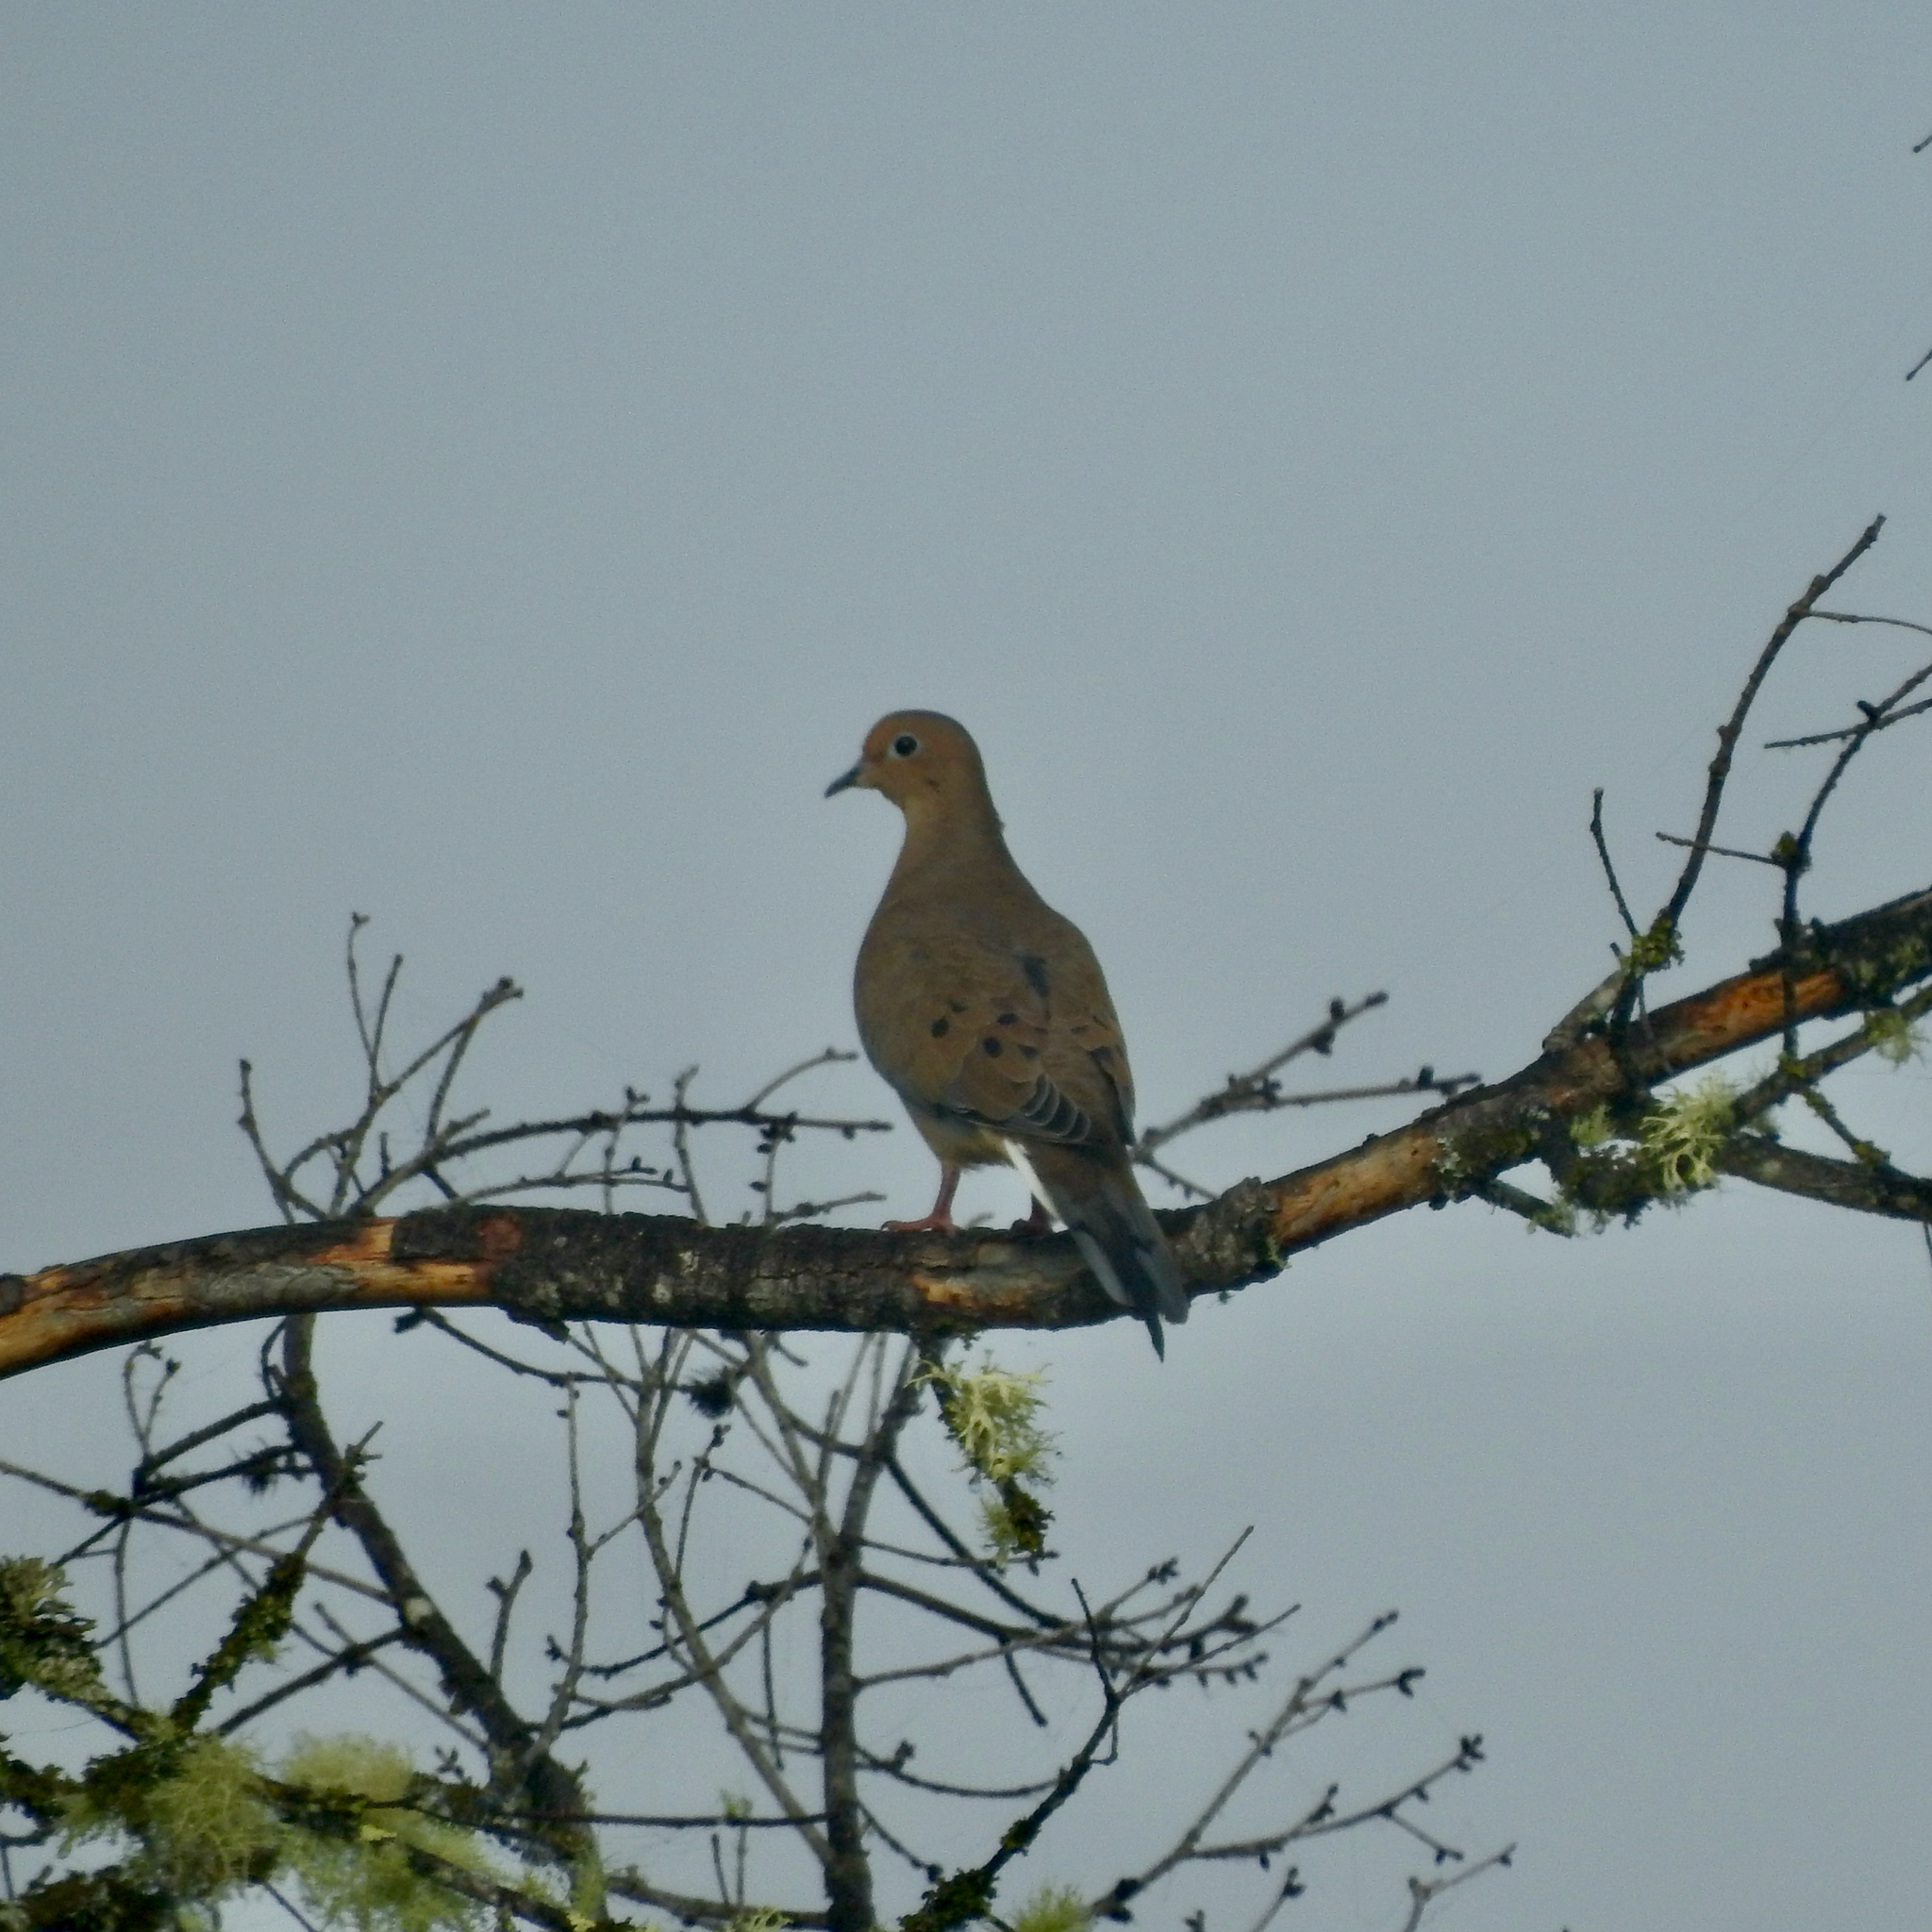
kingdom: Animalia
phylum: Chordata
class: Aves
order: Columbiformes
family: Columbidae
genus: Zenaida
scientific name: Zenaida macroura
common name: Mourning dove
